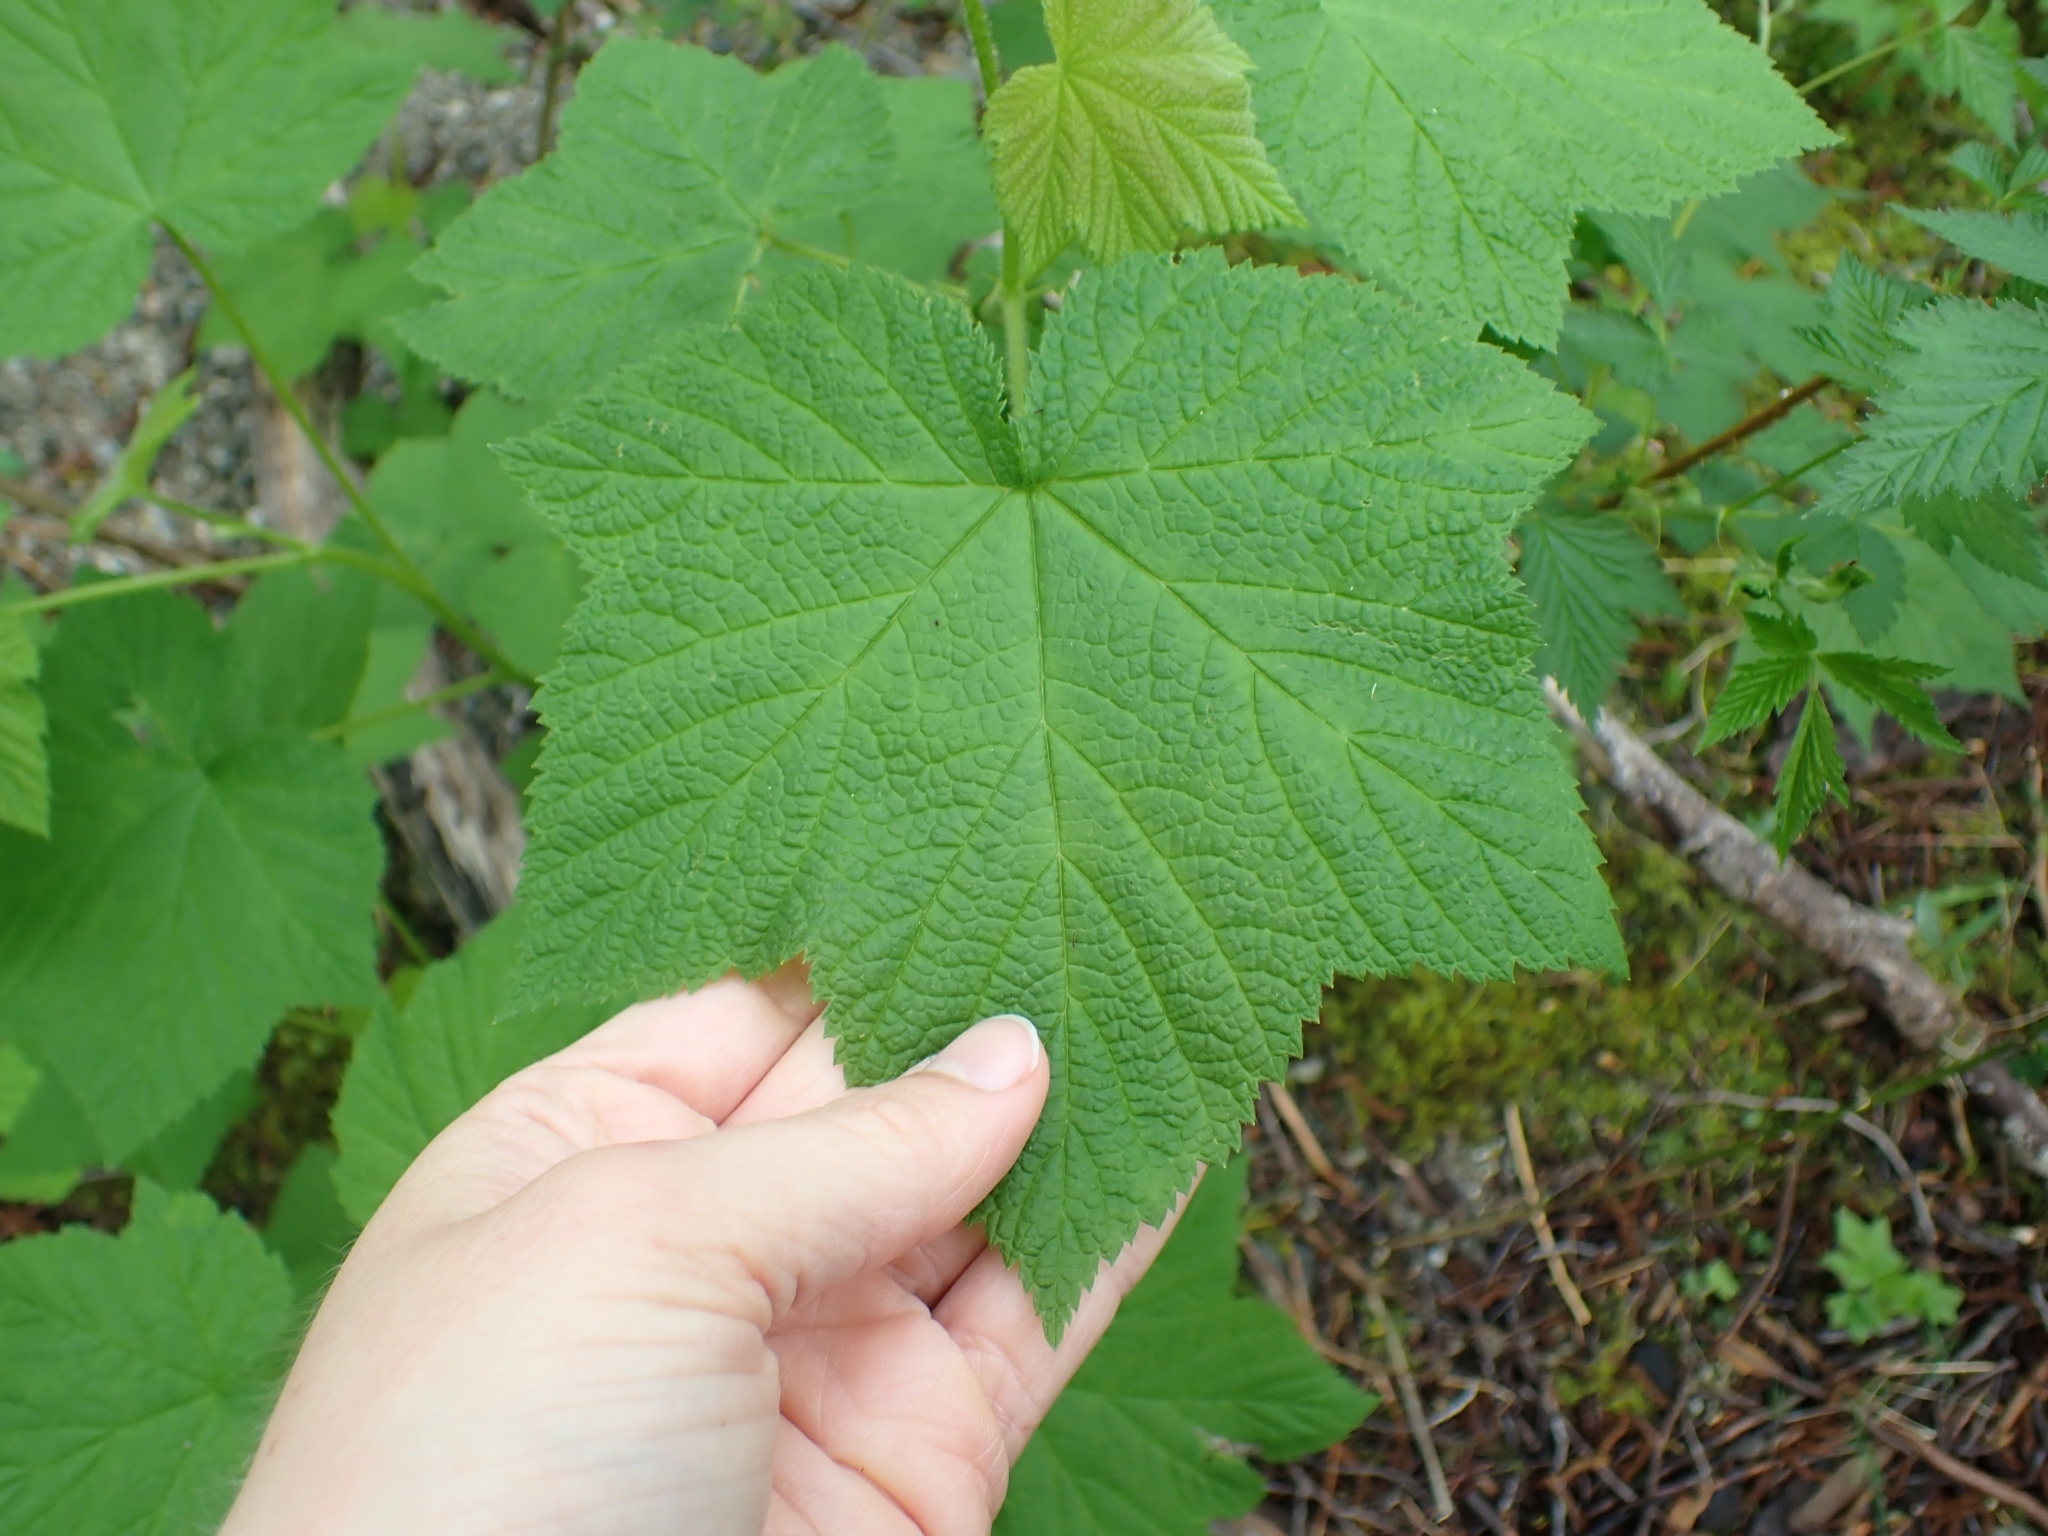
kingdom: Plantae
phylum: Tracheophyta
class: Magnoliopsida
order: Rosales
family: Rosaceae
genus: Rubus
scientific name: Rubus parviflorus
